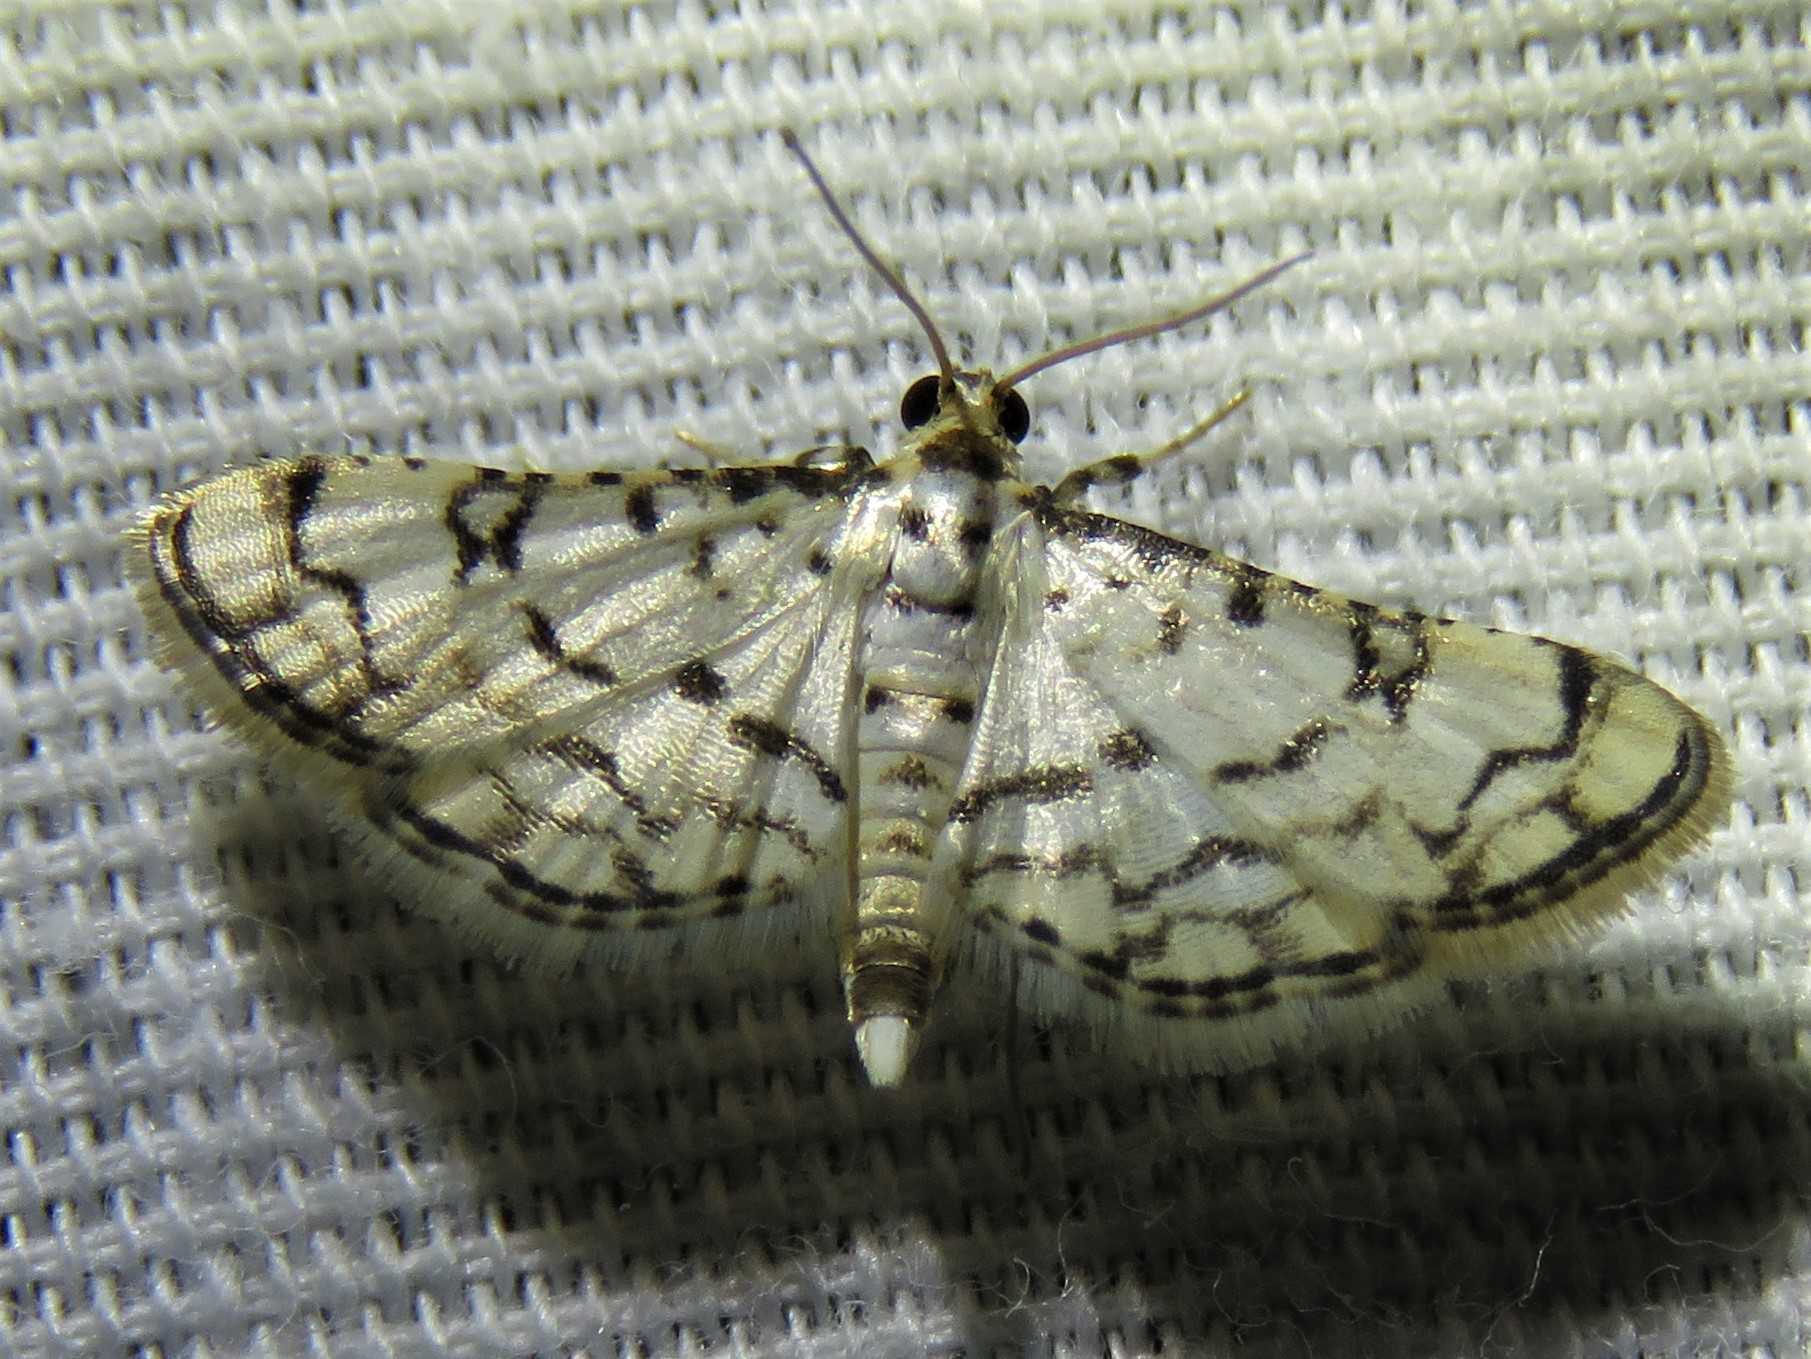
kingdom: Animalia
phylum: Arthropoda
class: Insecta
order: Lepidoptera
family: Crambidae
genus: Hileithia
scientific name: Hileithia rehamalis
